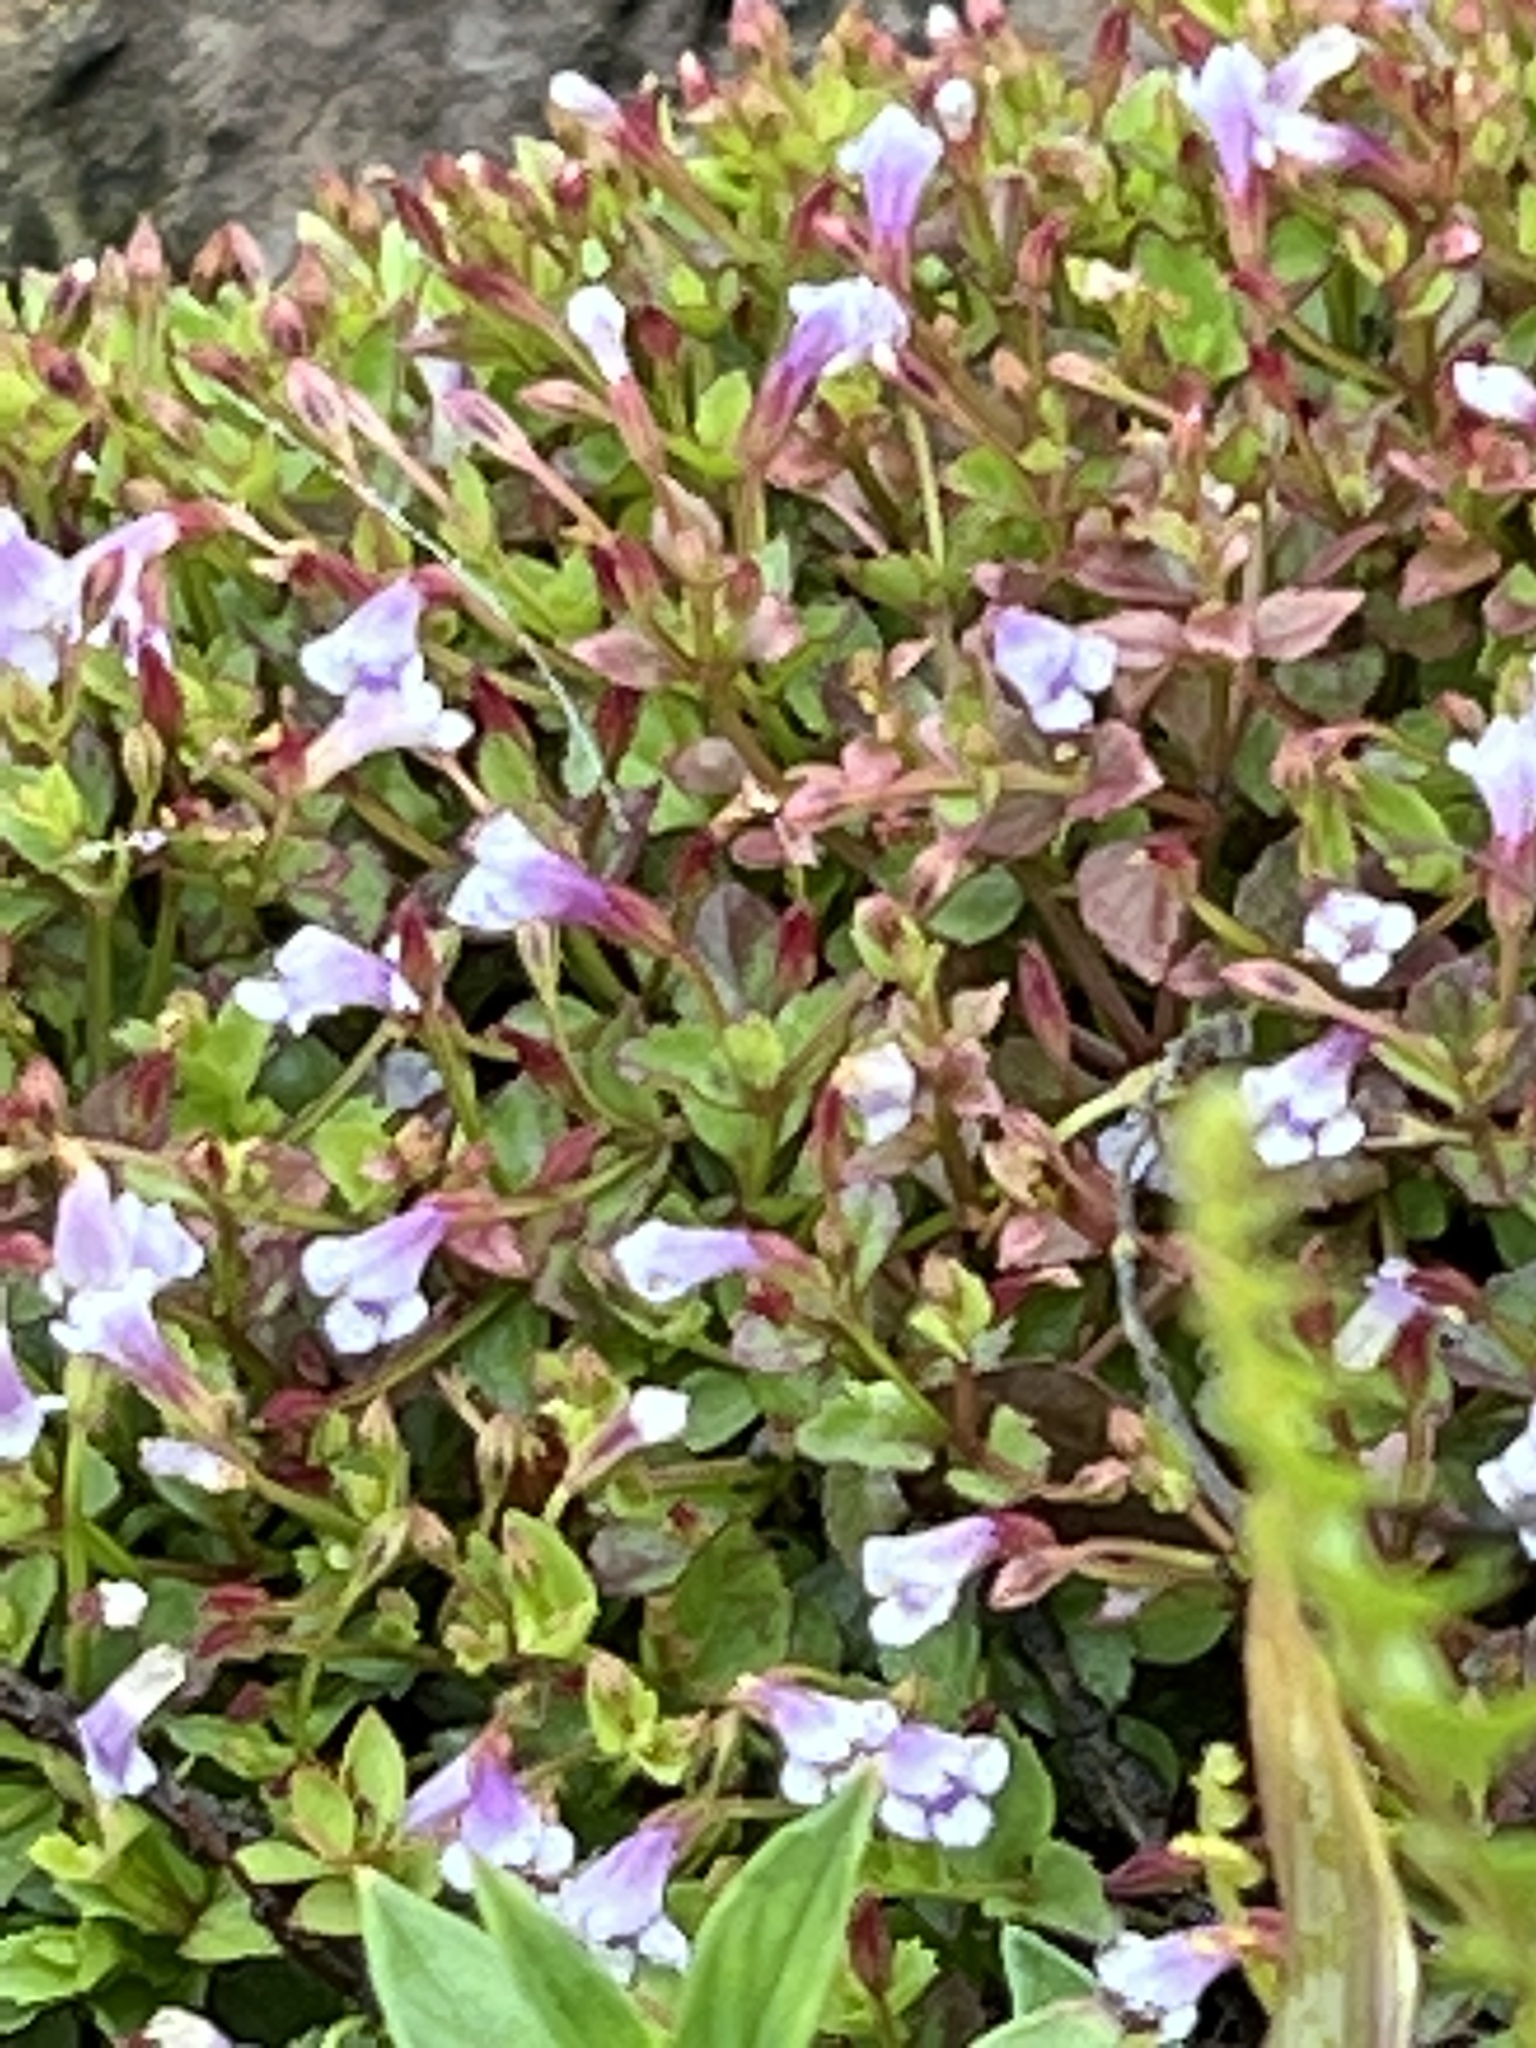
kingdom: Plantae
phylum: Tracheophyta
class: Magnoliopsida
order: Lamiales
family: Linderniaceae
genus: Torenia
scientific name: Torenia crustacea
